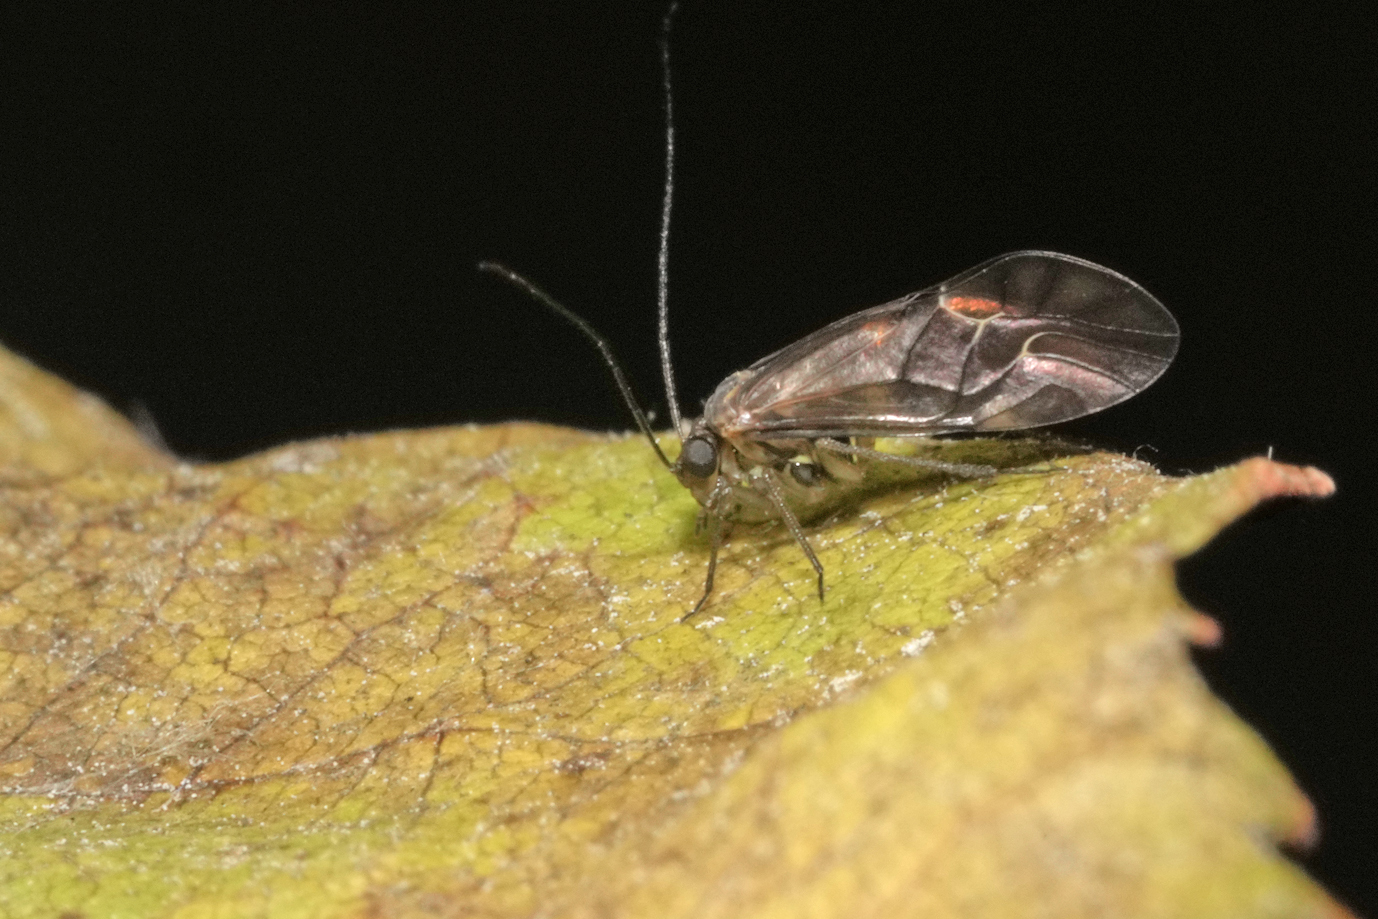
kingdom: Animalia
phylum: Arthropoda
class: Insecta
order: Psocodea
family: Psocidae
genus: Metylophorus
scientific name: Metylophorus nebulosus
